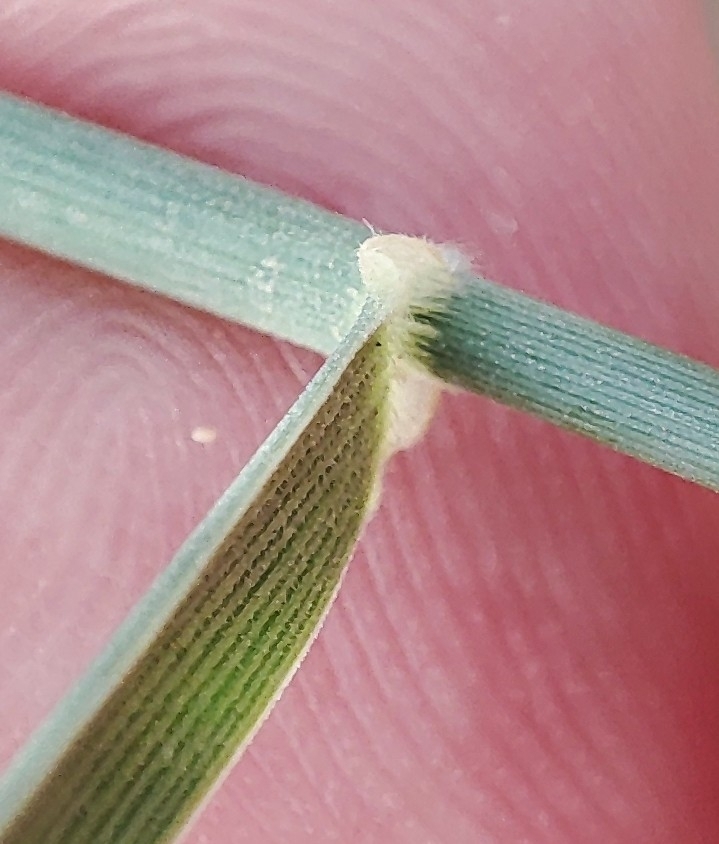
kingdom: Plantae
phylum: Tracheophyta
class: Liliopsida
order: Poales
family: Poaceae
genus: Cenchrus
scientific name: Cenchrus ciliaris
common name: Buffelgrass
